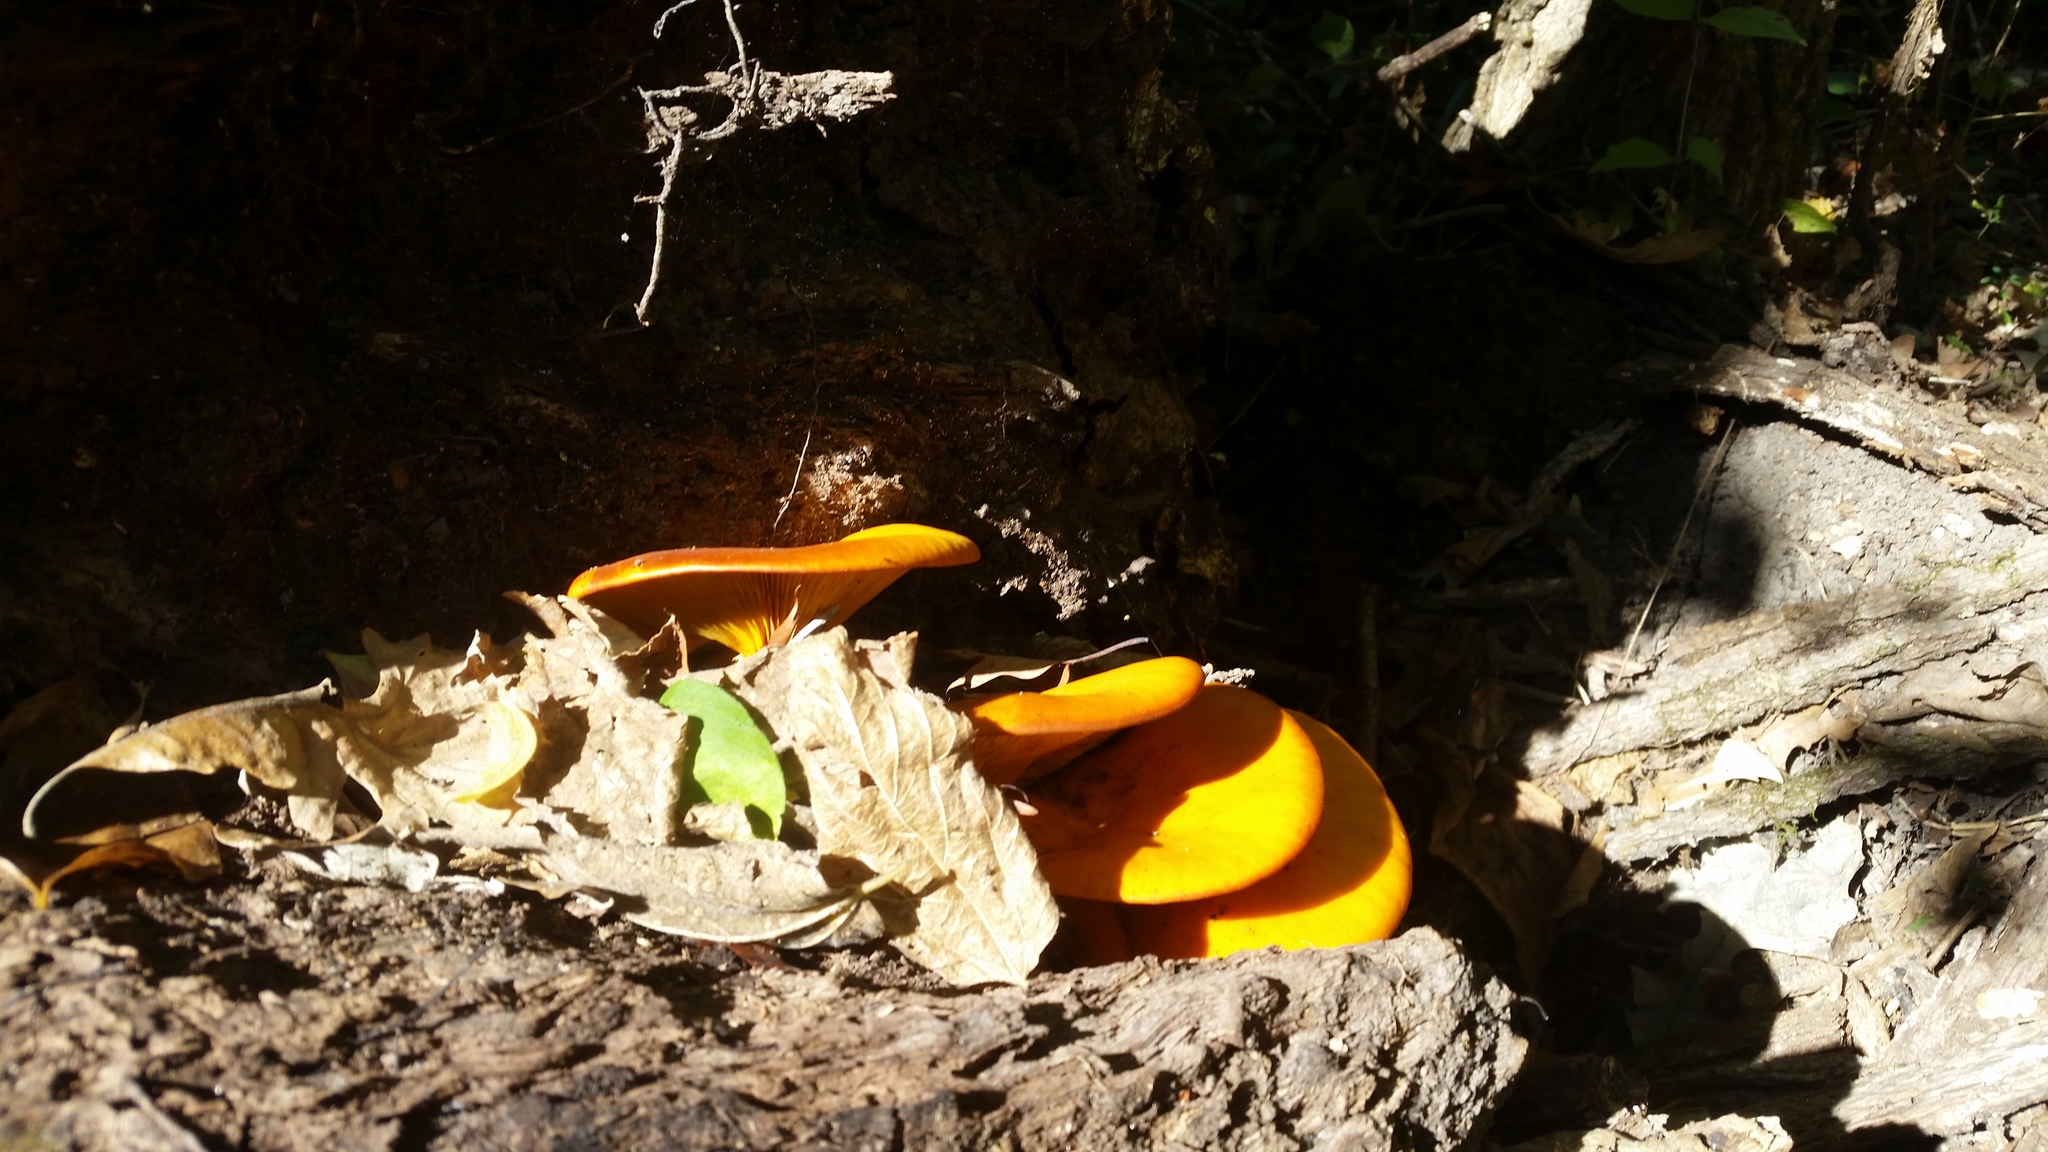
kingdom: Fungi
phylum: Basidiomycota
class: Agaricomycetes
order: Agaricales
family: Omphalotaceae
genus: Omphalotus
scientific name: Omphalotus illudens
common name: Jack o lantern
